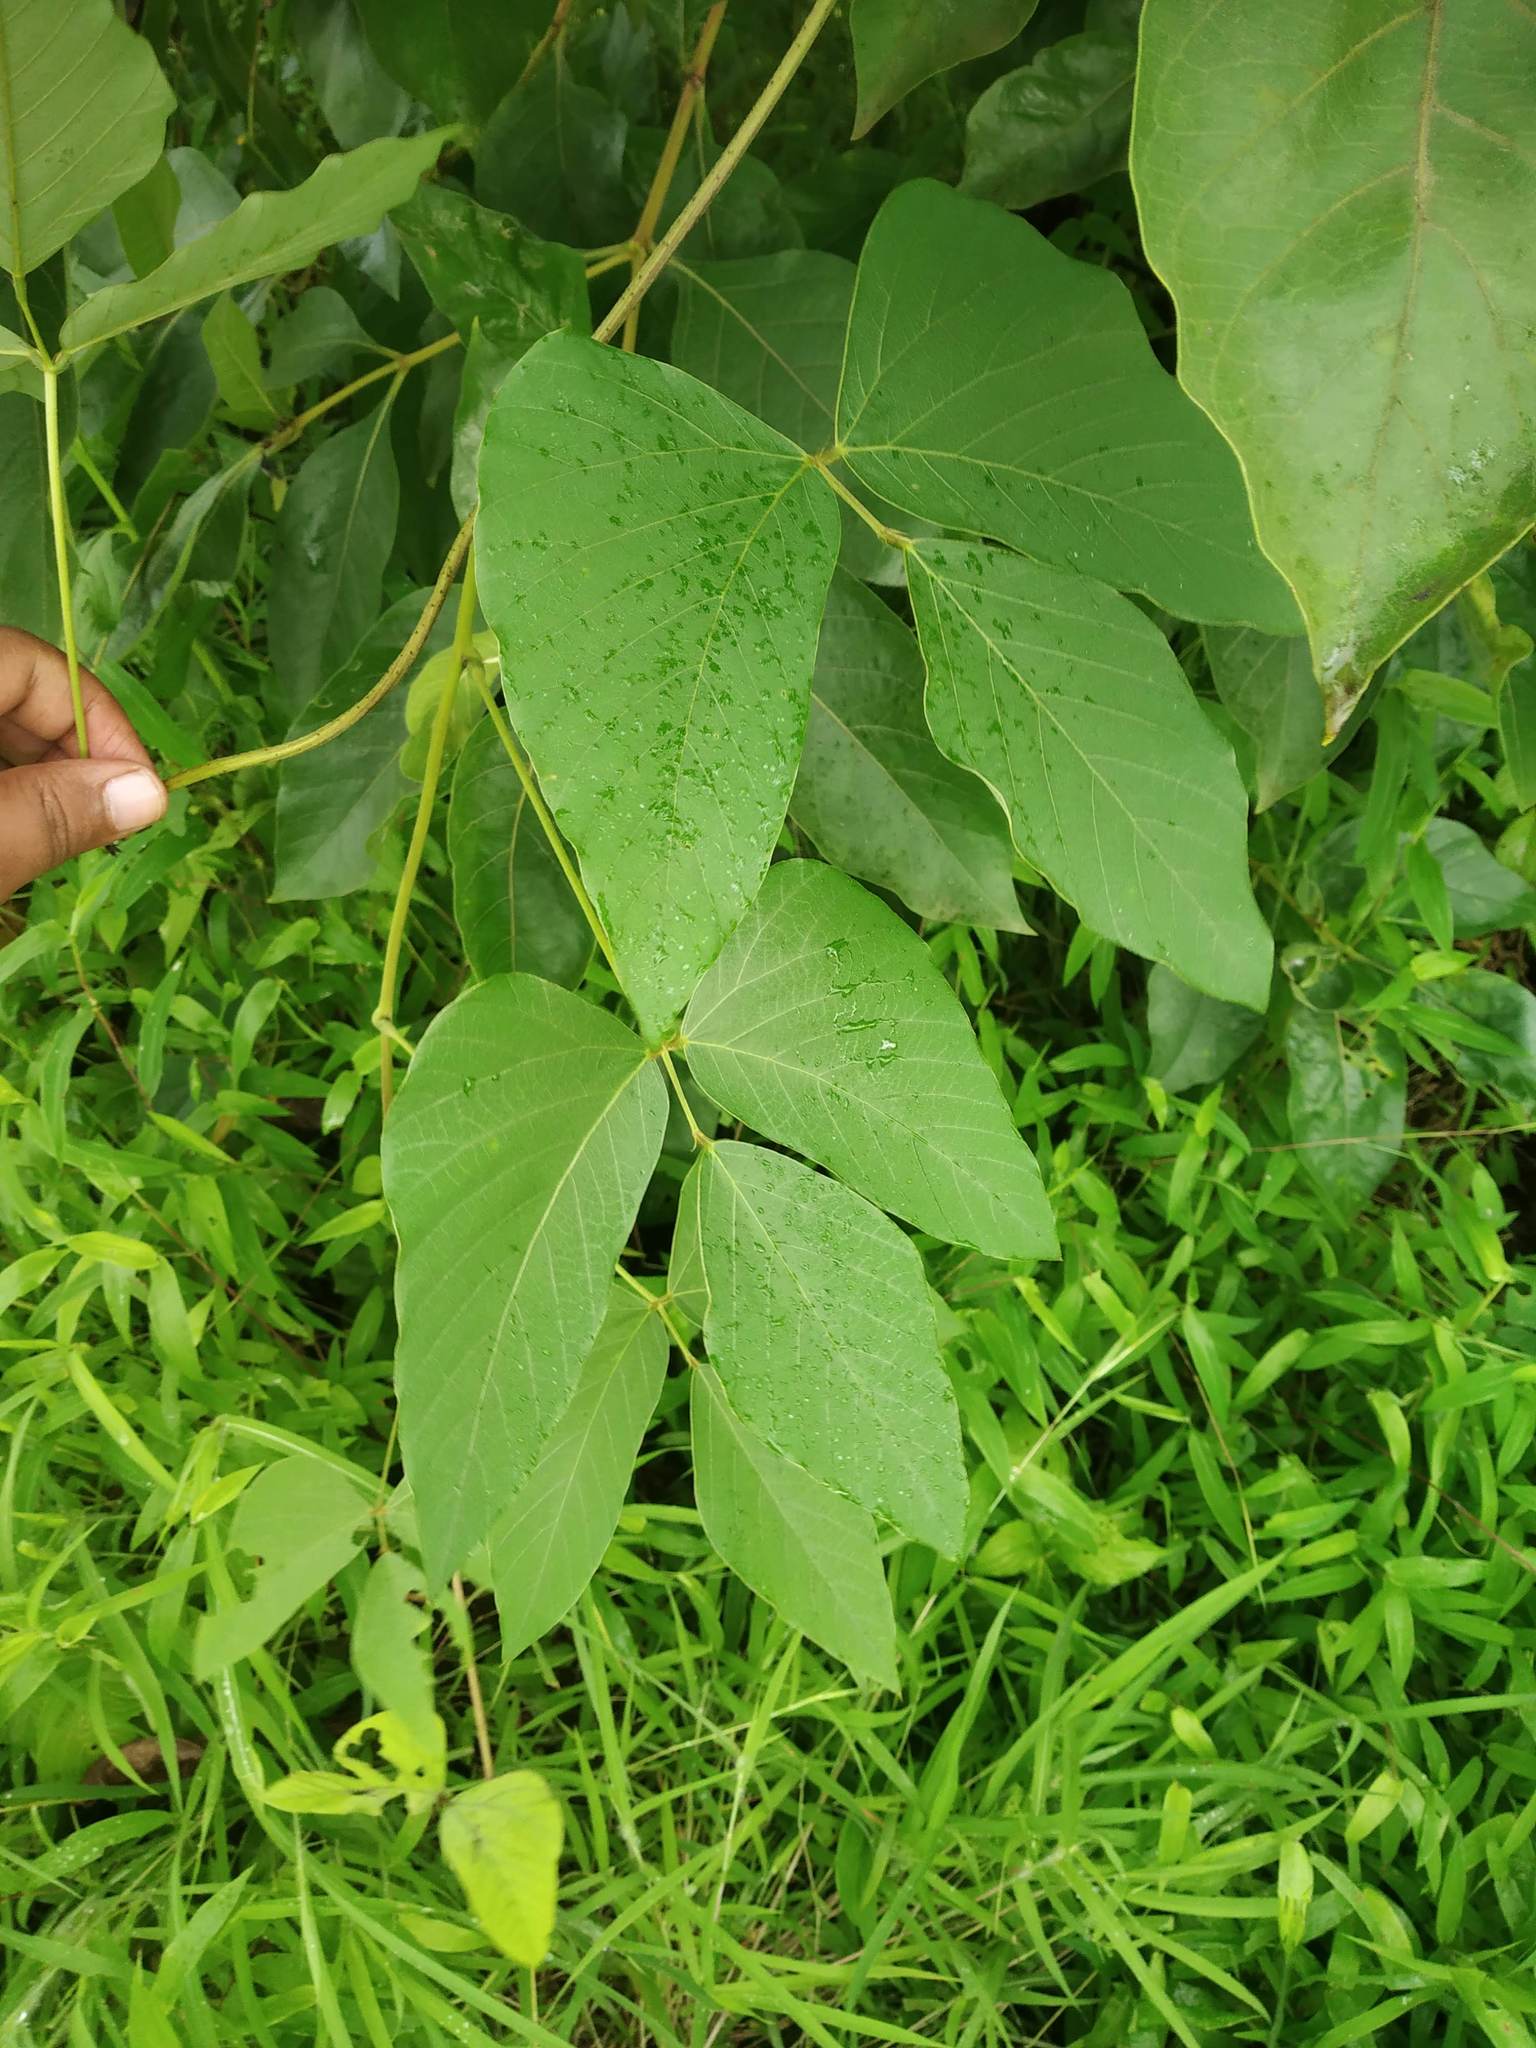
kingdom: Plantae
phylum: Tracheophyta
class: Magnoliopsida
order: Fabales
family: Fabaceae
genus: Mucuna
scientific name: Mucuna pruriens
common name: Cow-itch
